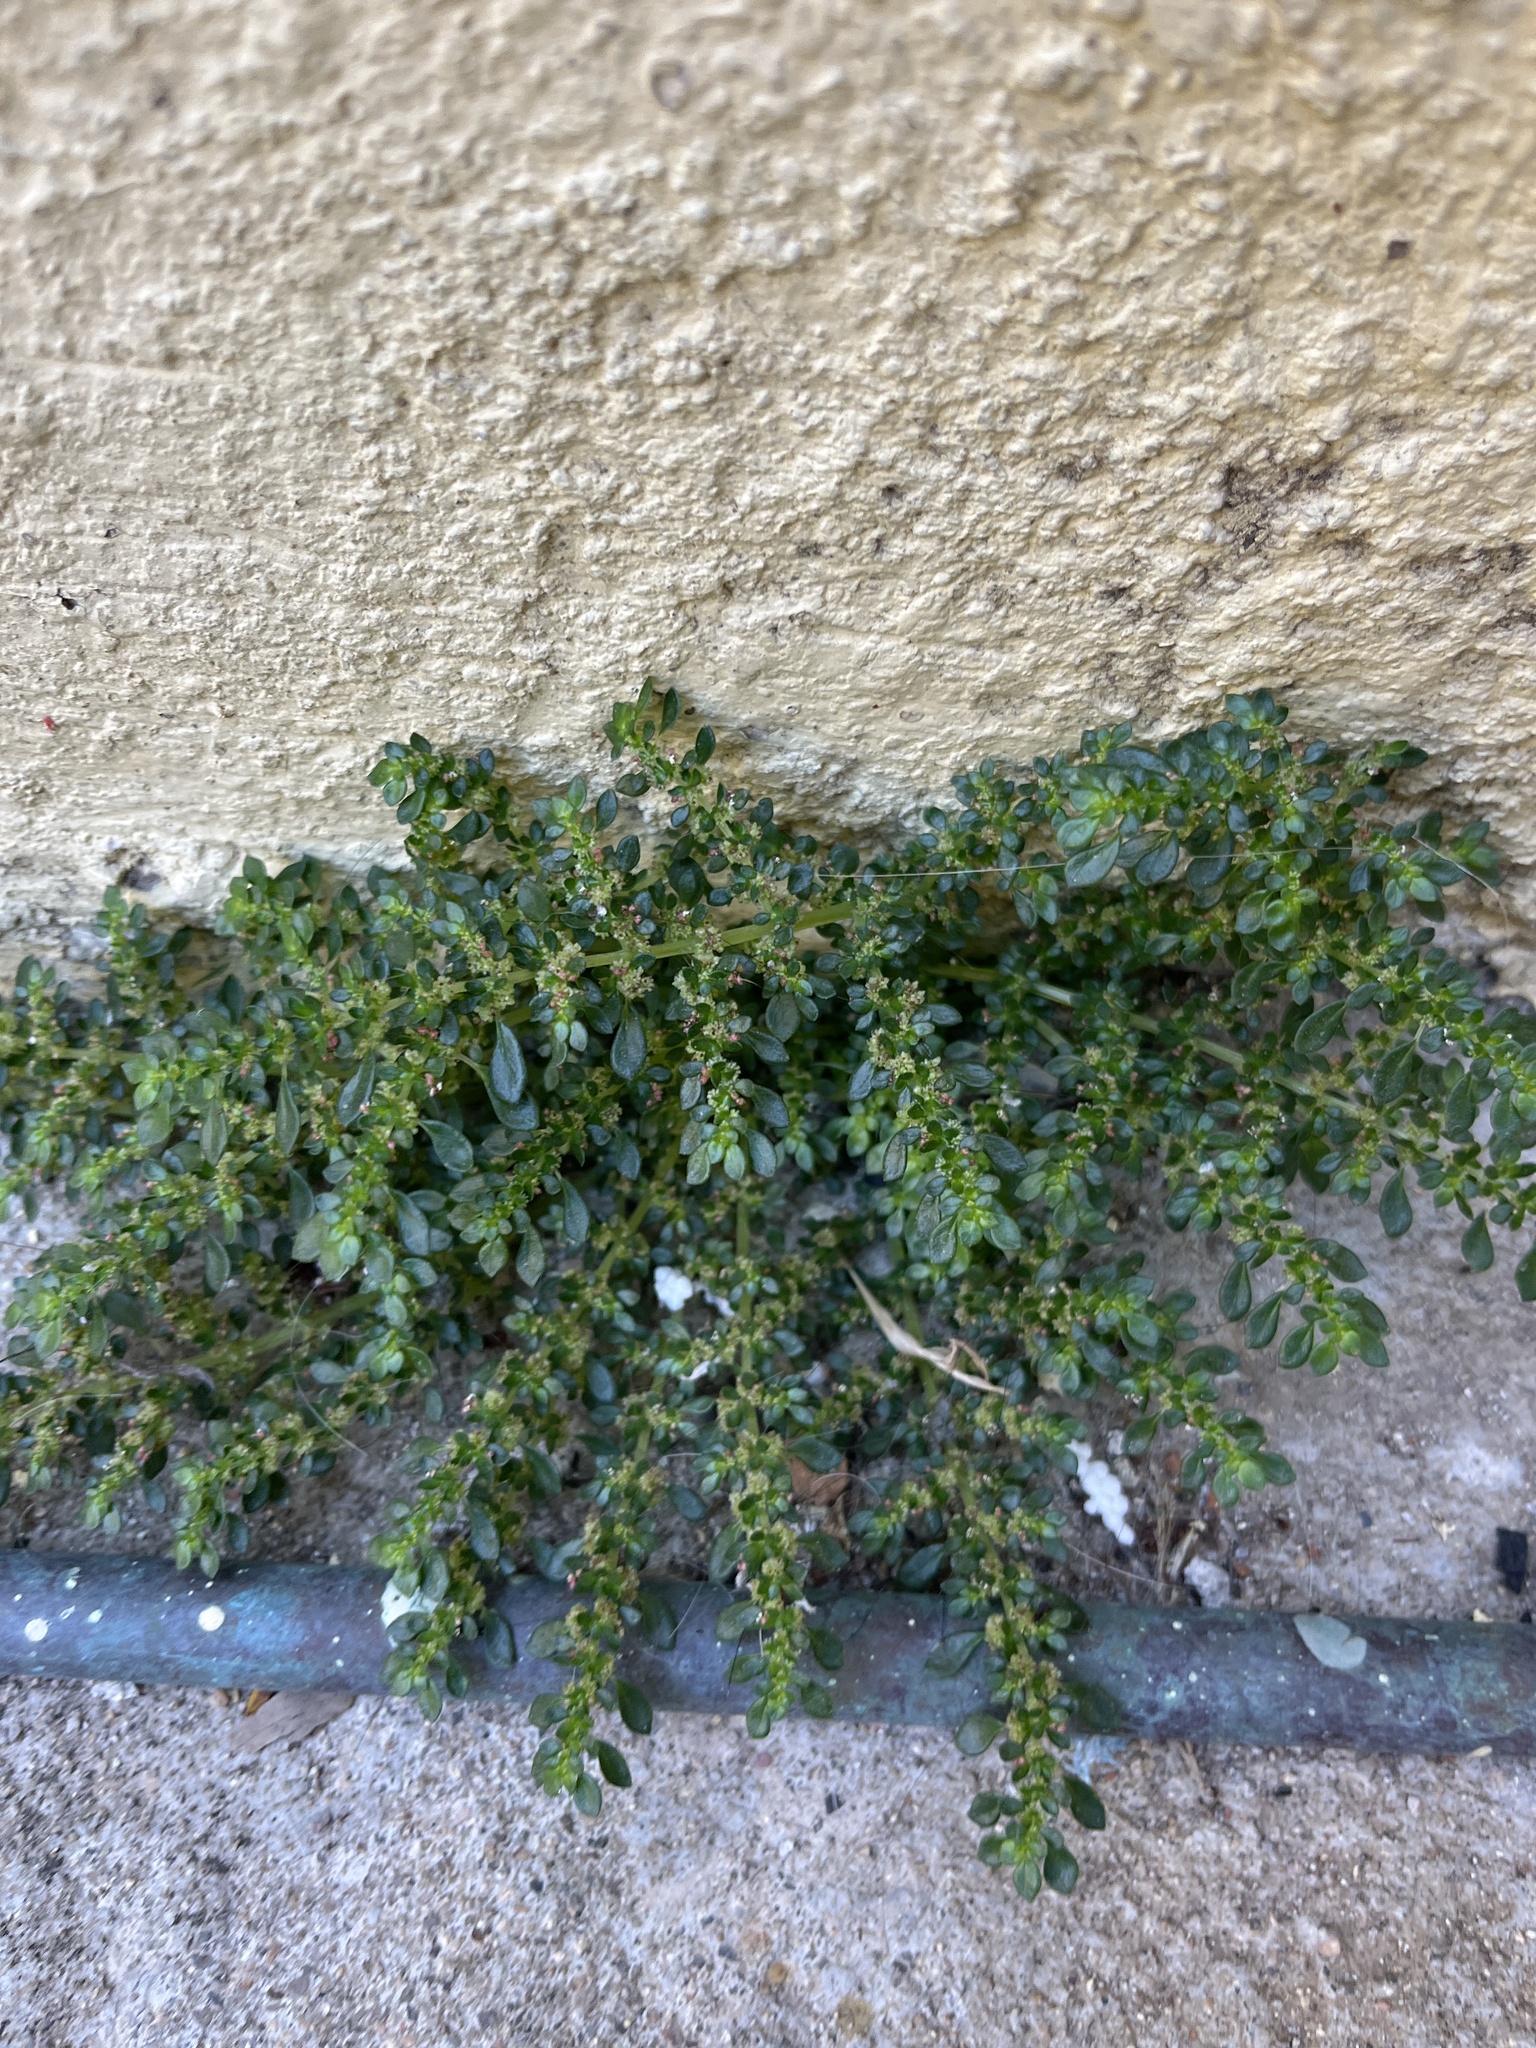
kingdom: Plantae
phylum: Tracheophyta
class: Magnoliopsida
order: Rosales
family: Urticaceae
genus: Pilea
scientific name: Pilea microphylla
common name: Artillery-plant
